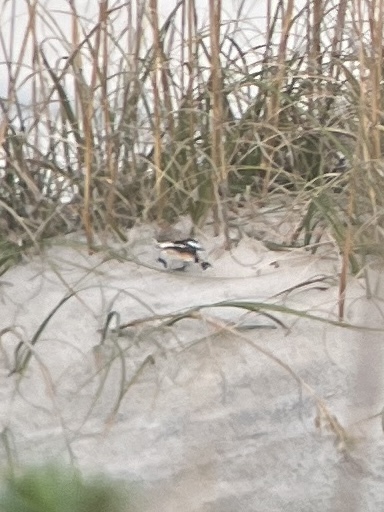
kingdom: Animalia
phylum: Chordata
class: Aves
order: Passeriformes
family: Calcariidae
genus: Plectrophenax
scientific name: Plectrophenax nivalis
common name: Snow bunting
